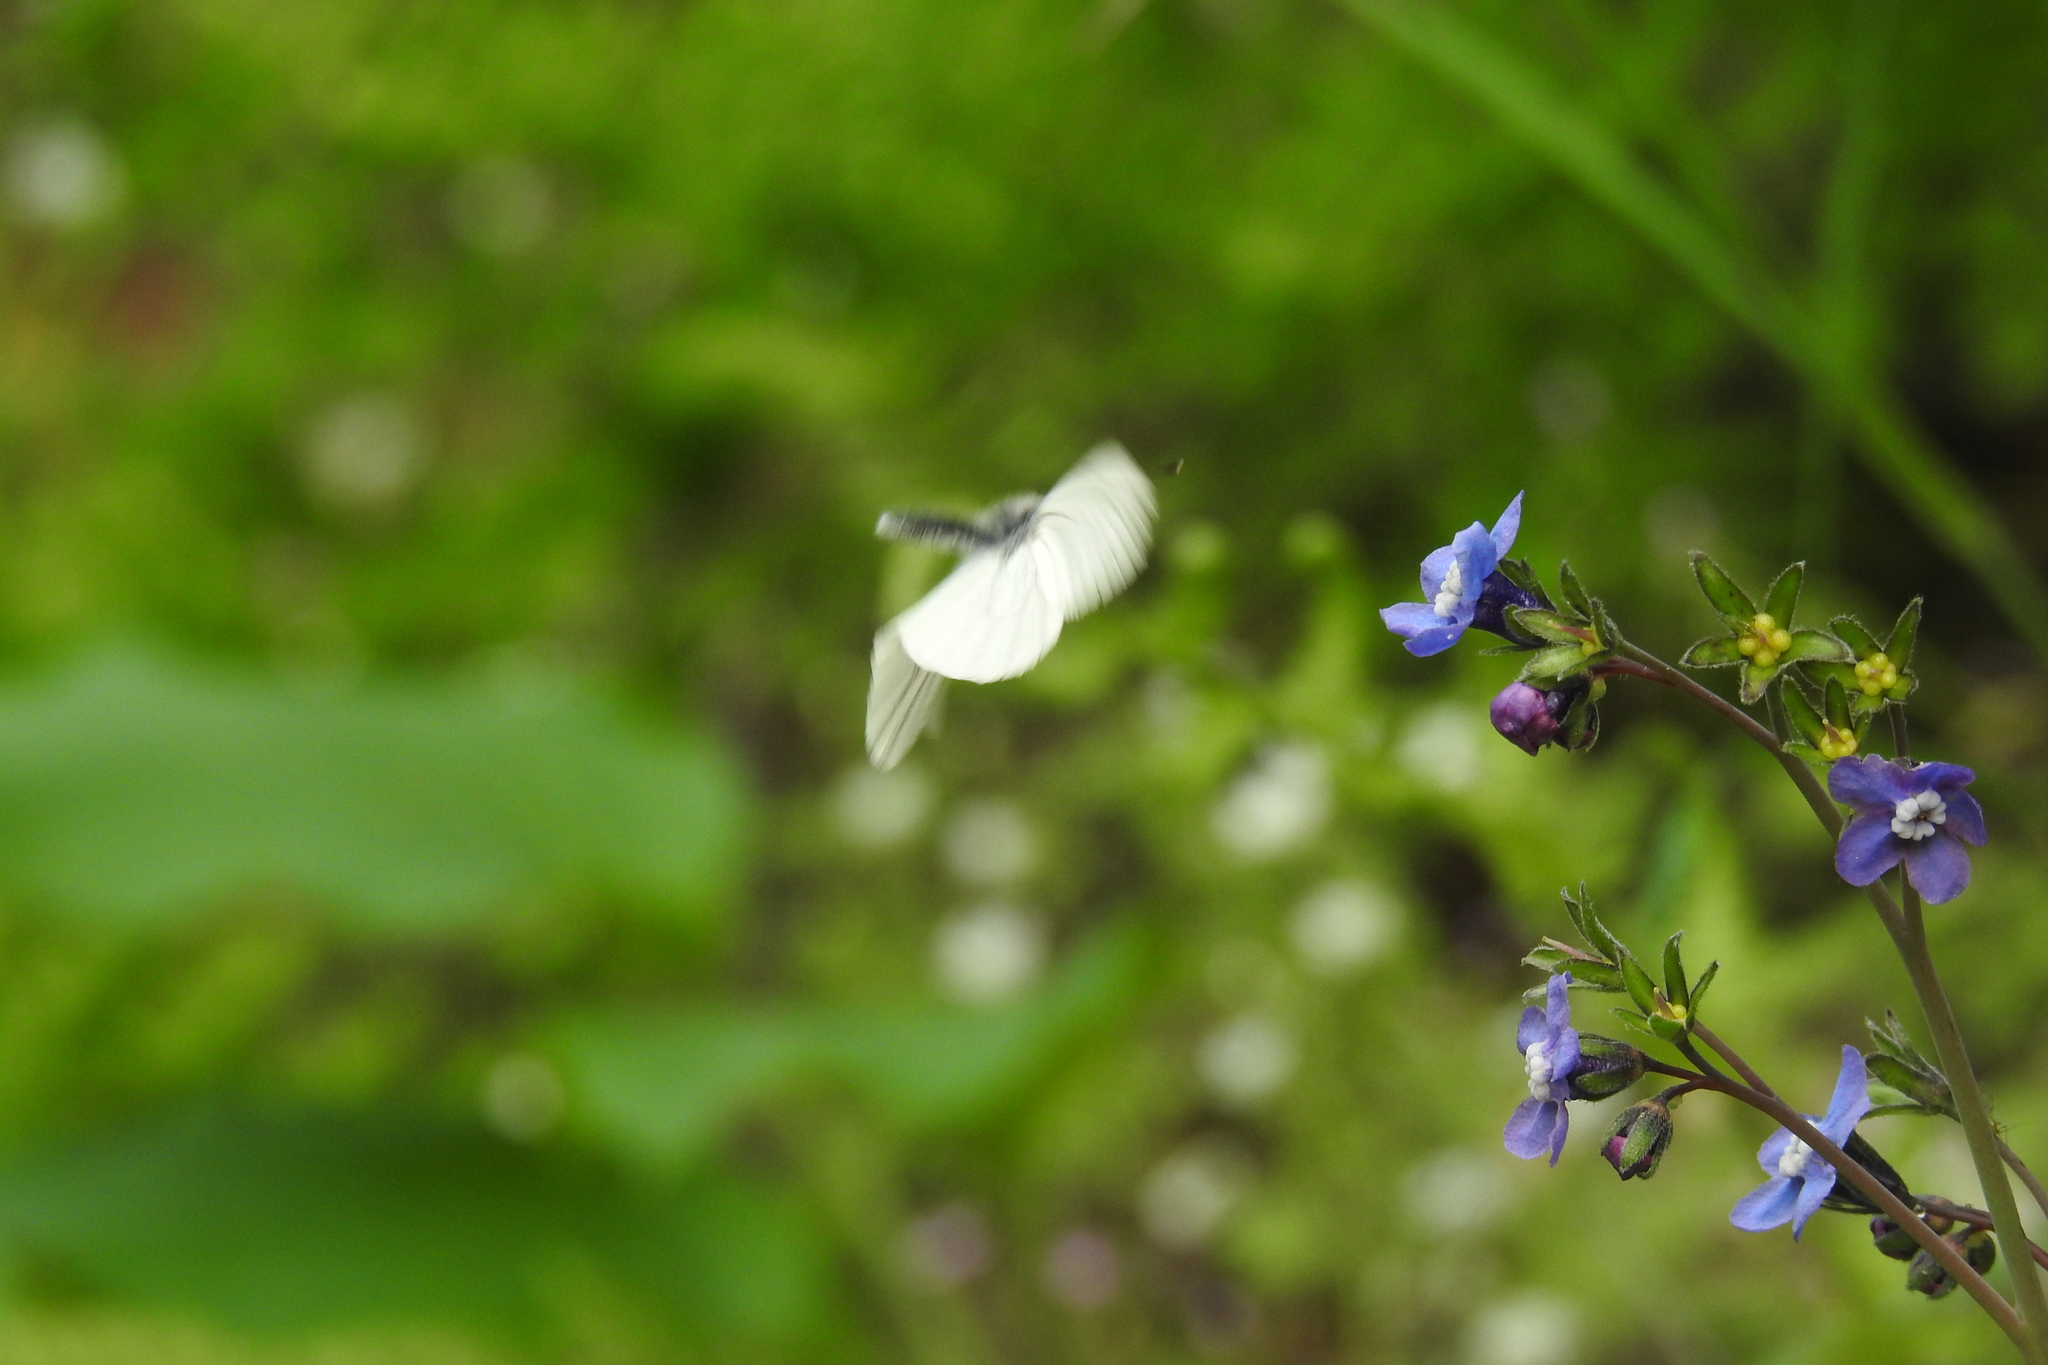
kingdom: Plantae
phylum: Tracheophyta
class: Magnoliopsida
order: Boraginales
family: Boraginaceae
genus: Adelinia
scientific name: Adelinia grande
